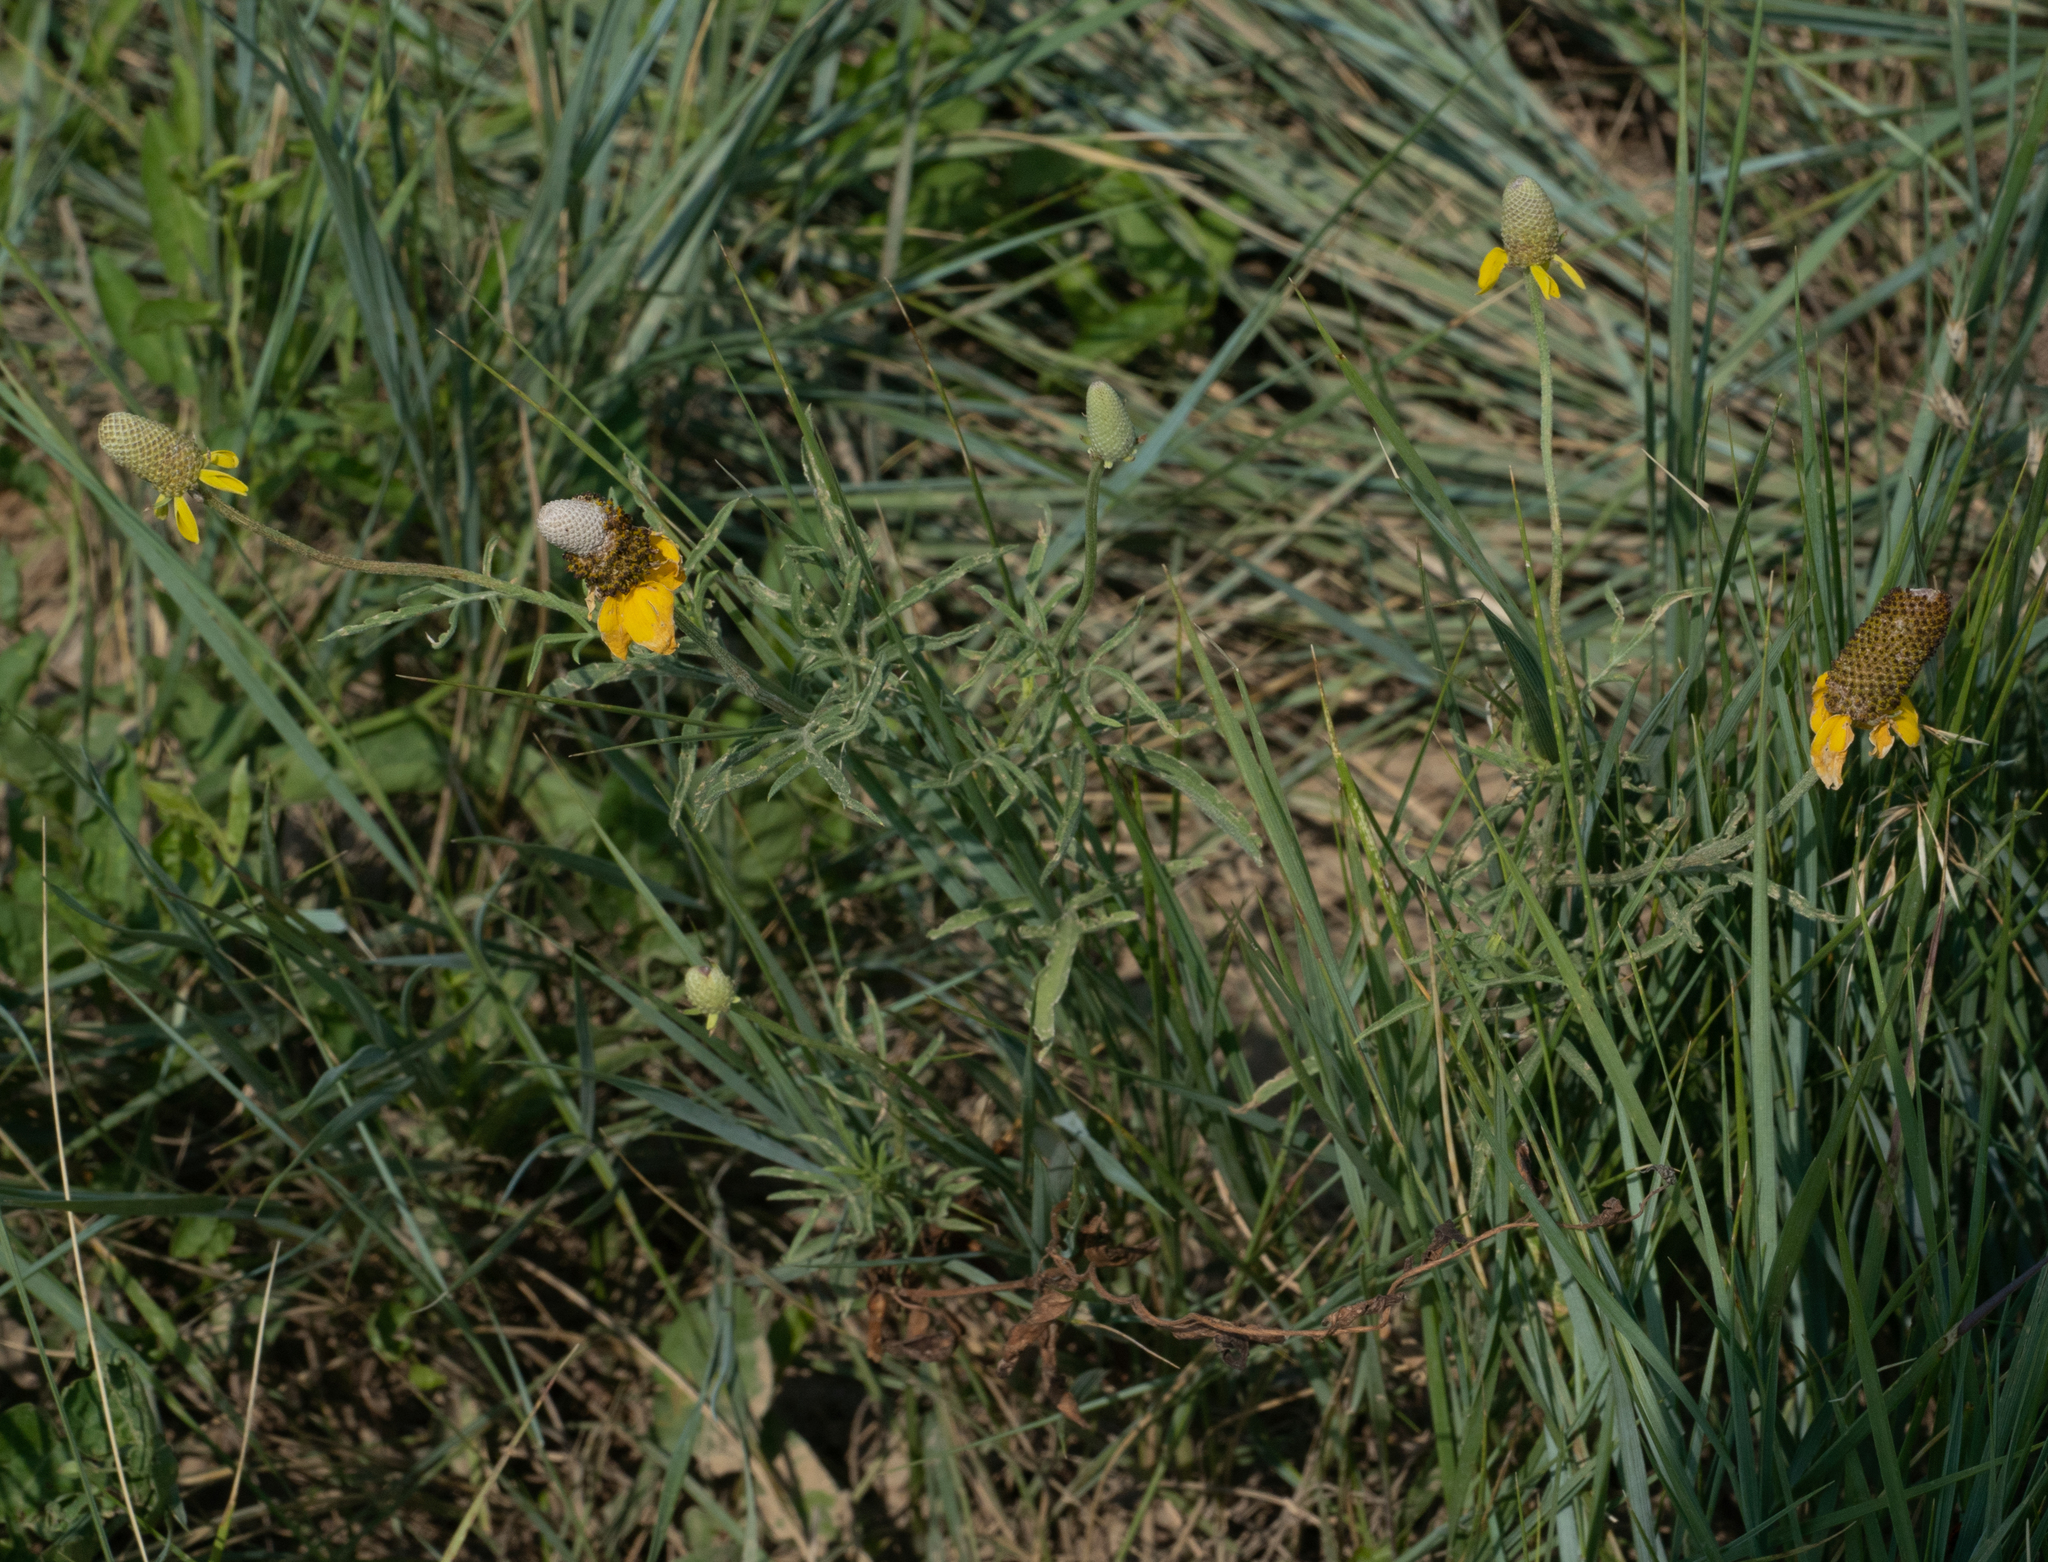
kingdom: Plantae
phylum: Tracheophyta
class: Magnoliopsida
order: Asterales
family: Asteraceae
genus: Ratibida
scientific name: Ratibida columnifera
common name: Prairie coneflower
